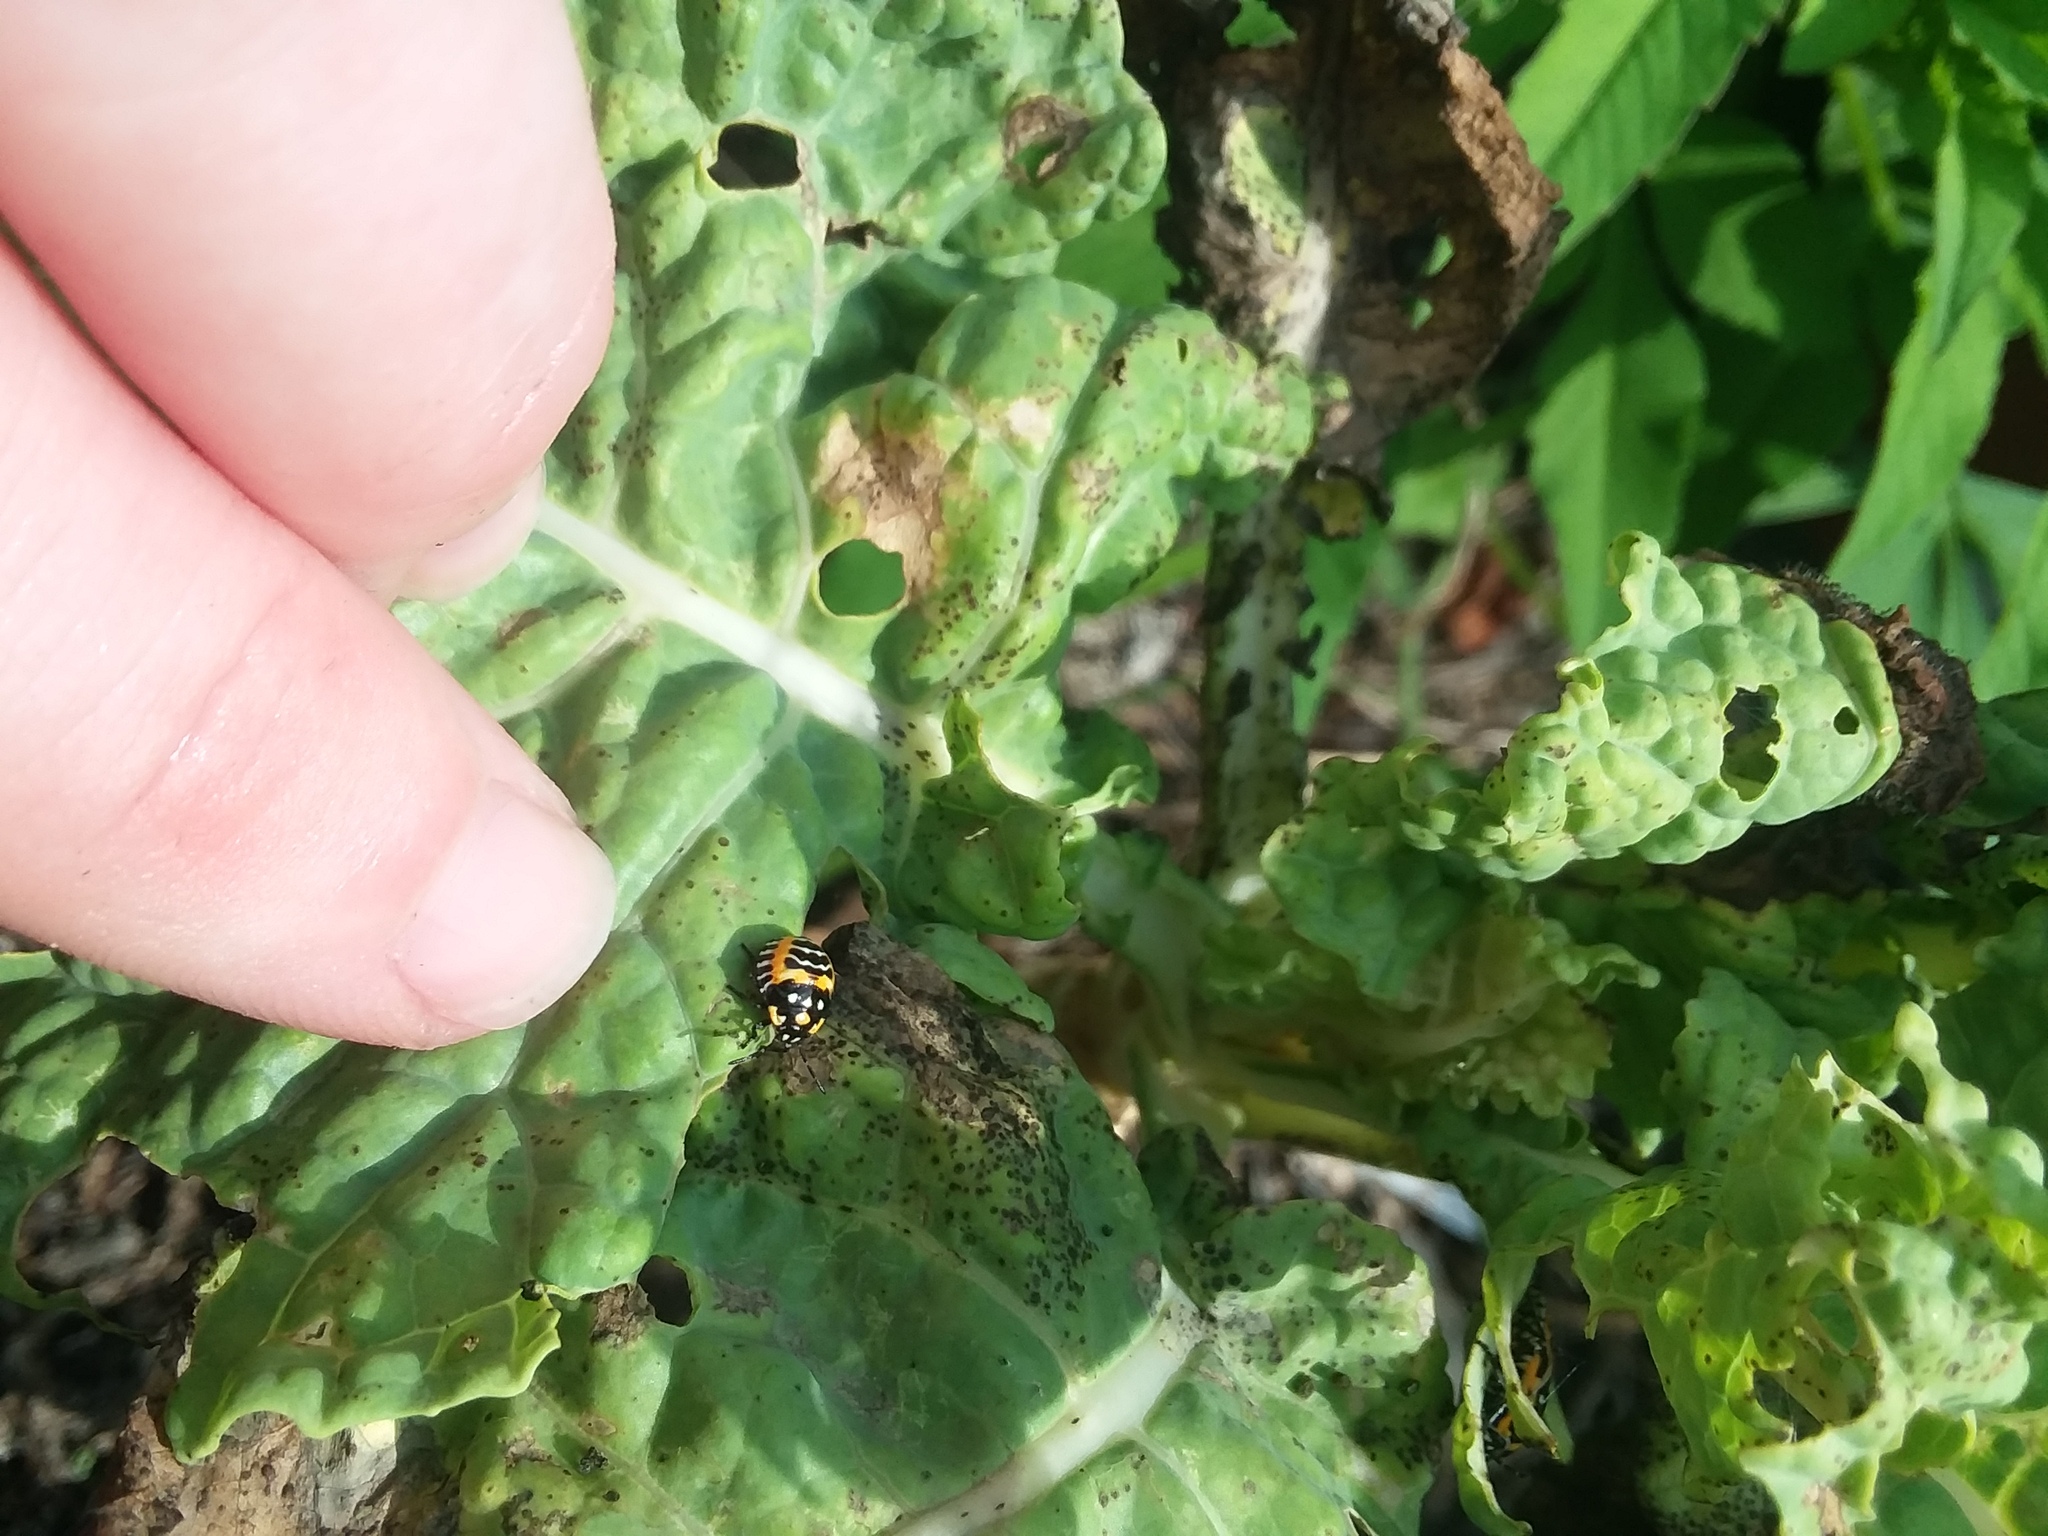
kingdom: Animalia
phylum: Arthropoda
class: Insecta
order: Hemiptera
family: Pentatomidae
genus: Murgantia
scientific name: Murgantia histrionica
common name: Harlequin bug
